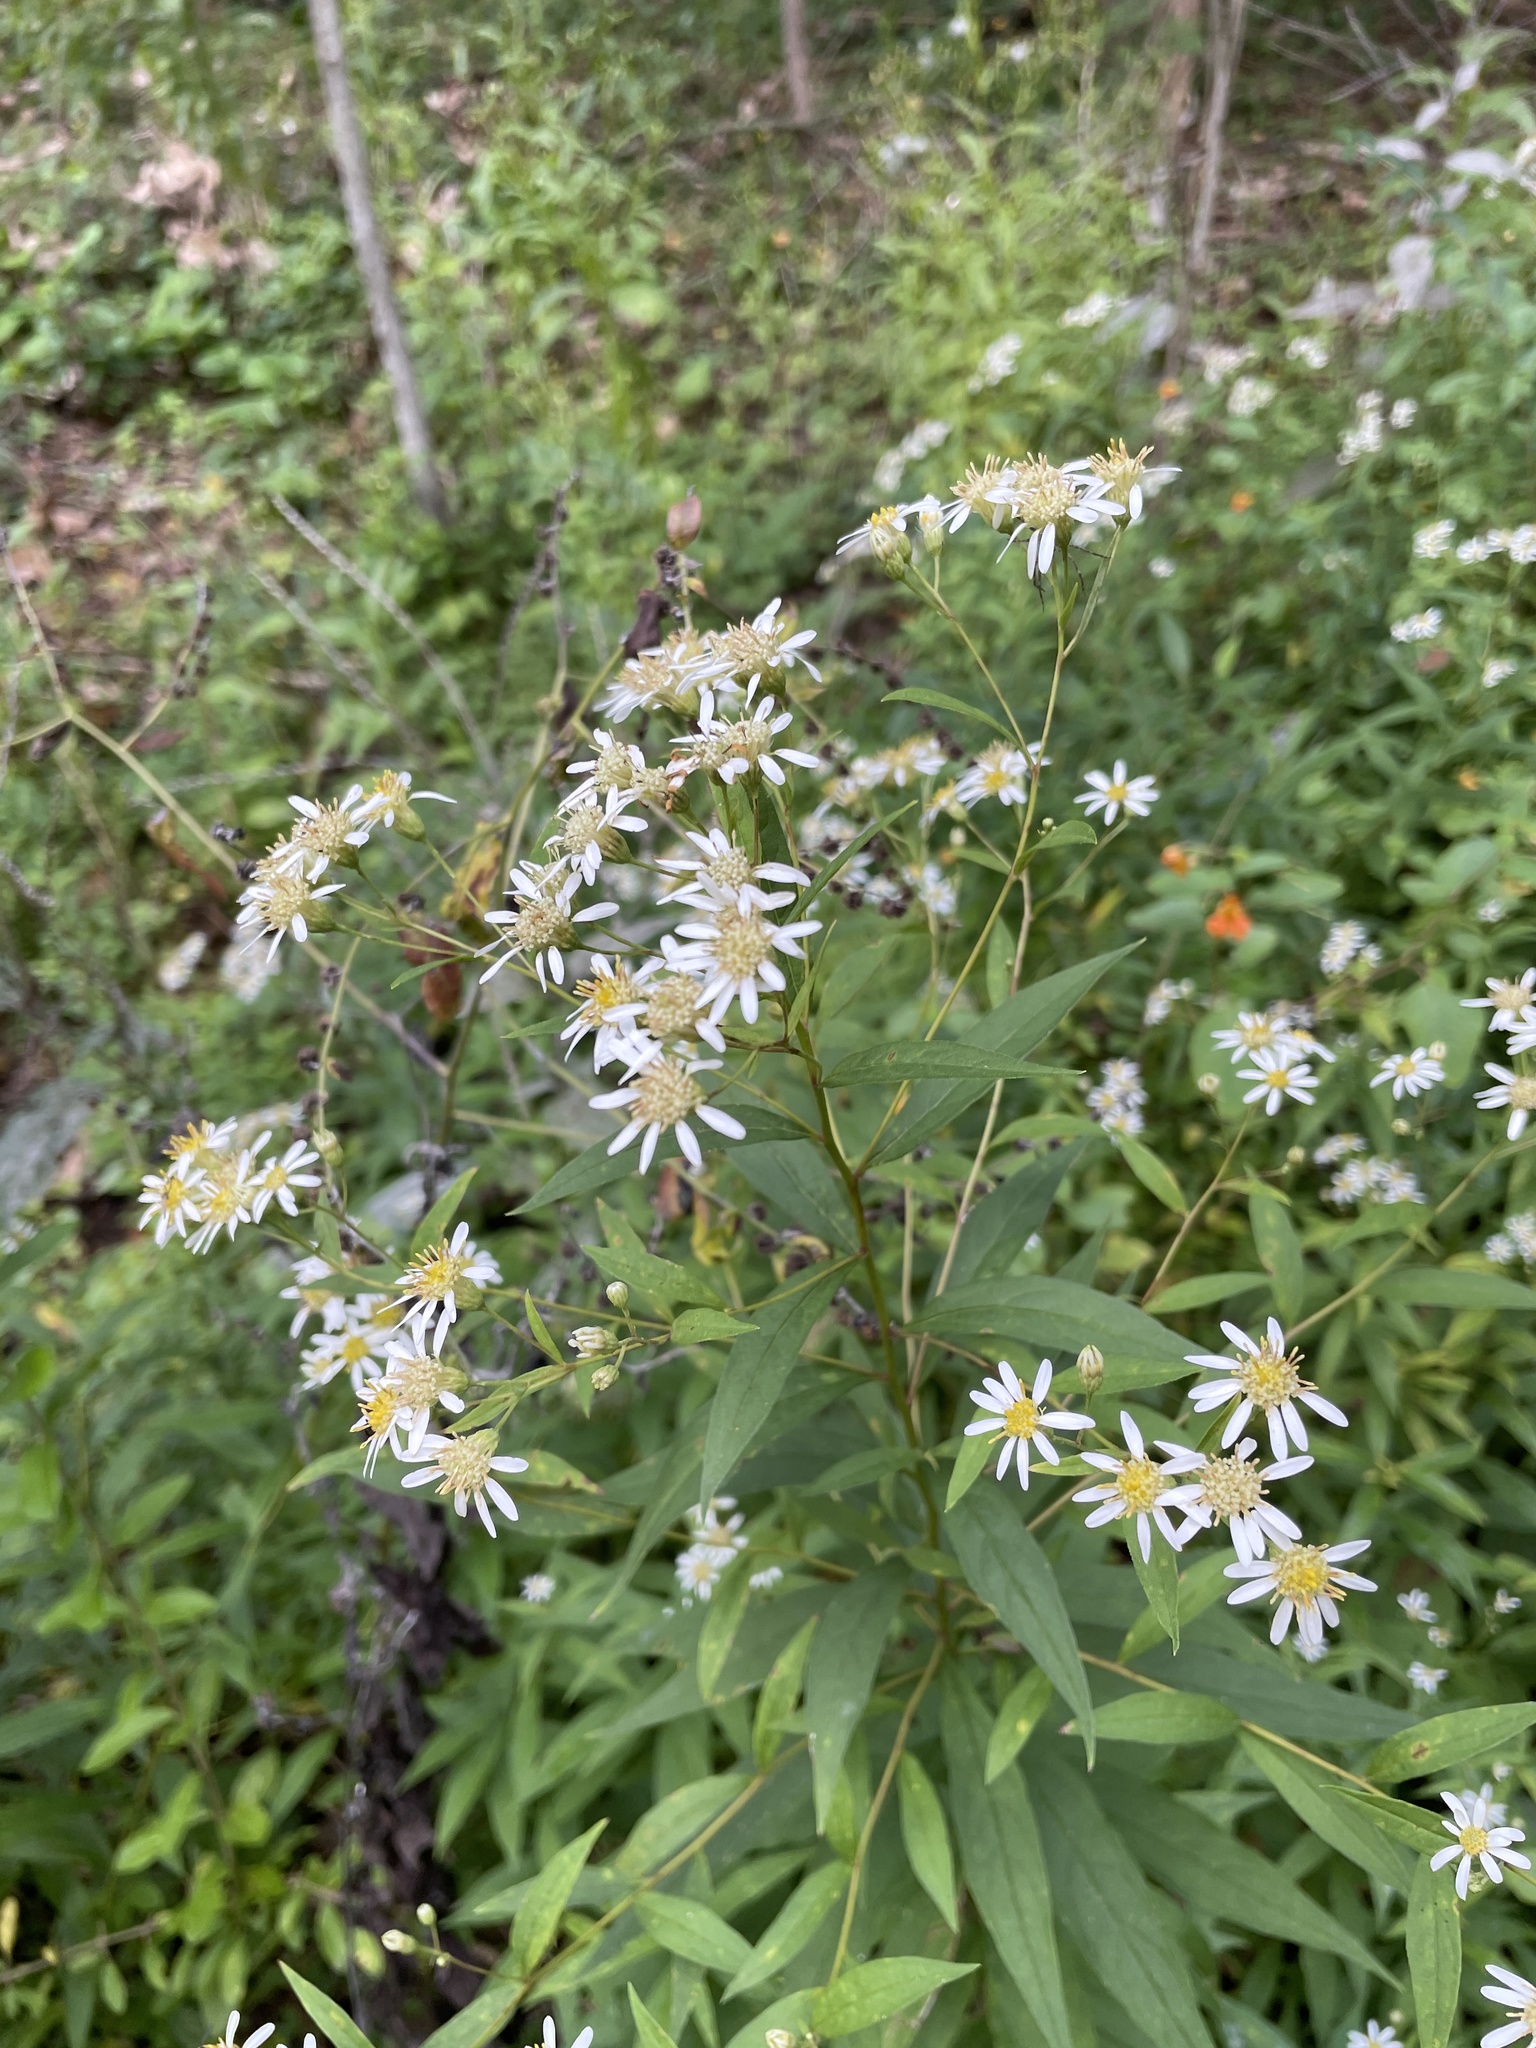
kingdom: Plantae
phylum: Tracheophyta
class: Magnoliopsida
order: Asterales
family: Asteraceae
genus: Doellingeria
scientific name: Doellingeria umbellata
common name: Flat-top white aster
